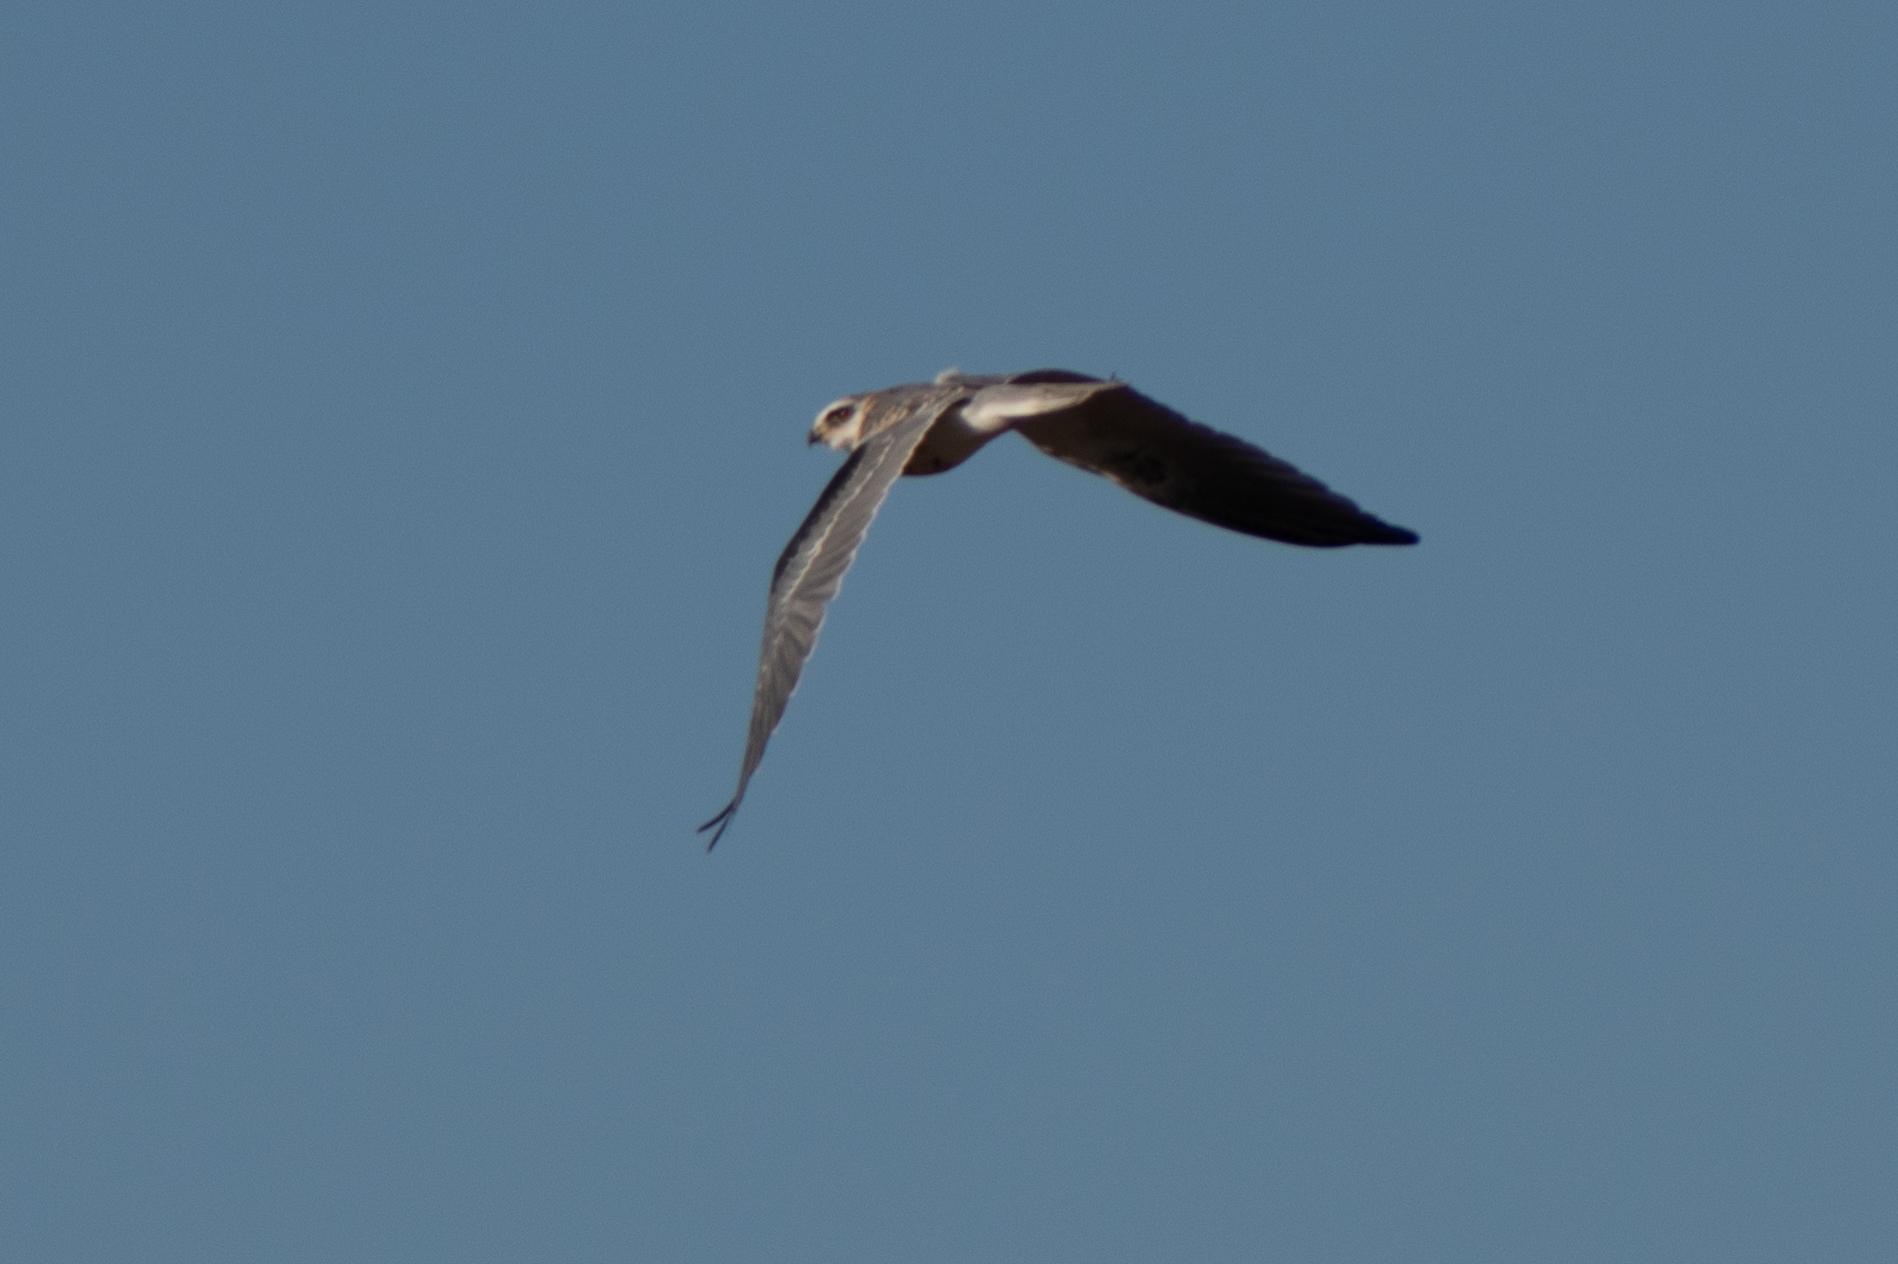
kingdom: Animalia
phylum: Chordata
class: Aves
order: Accipitriformes
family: Accipitridae
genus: Elanus
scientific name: Elanus leucurus
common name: White-tailed kite
